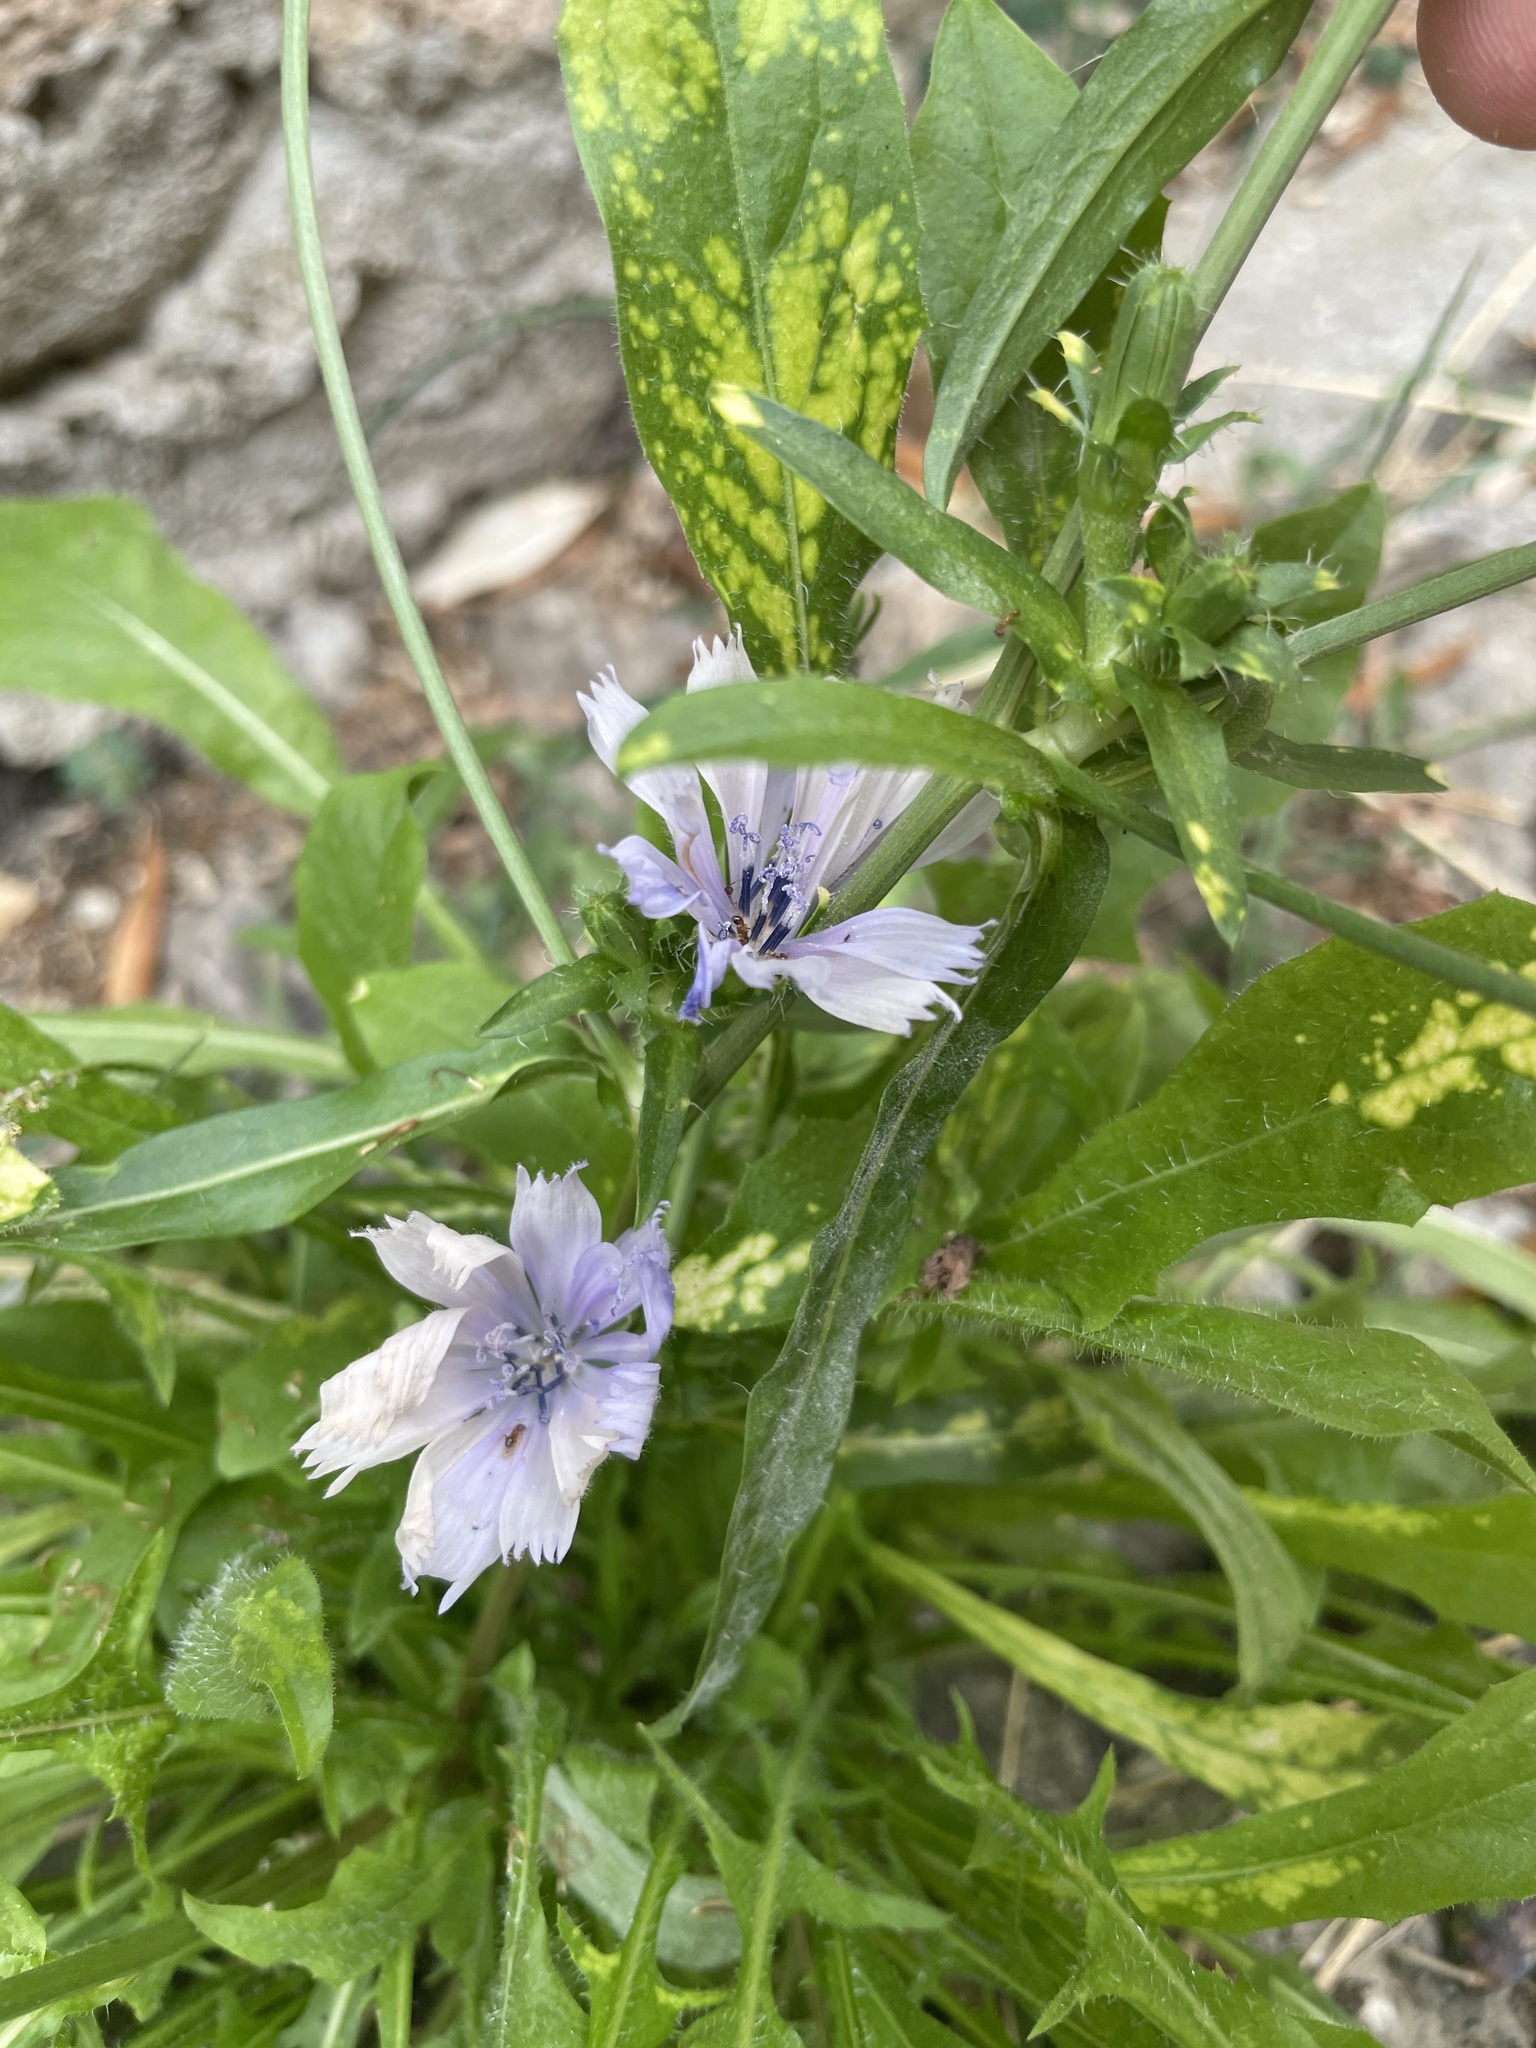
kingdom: Plantae
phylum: Tracheophyta
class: Magnoliopsida
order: Asterales
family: Asteraceae
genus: Cichorium
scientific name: Cichorium intybus
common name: Chicory
